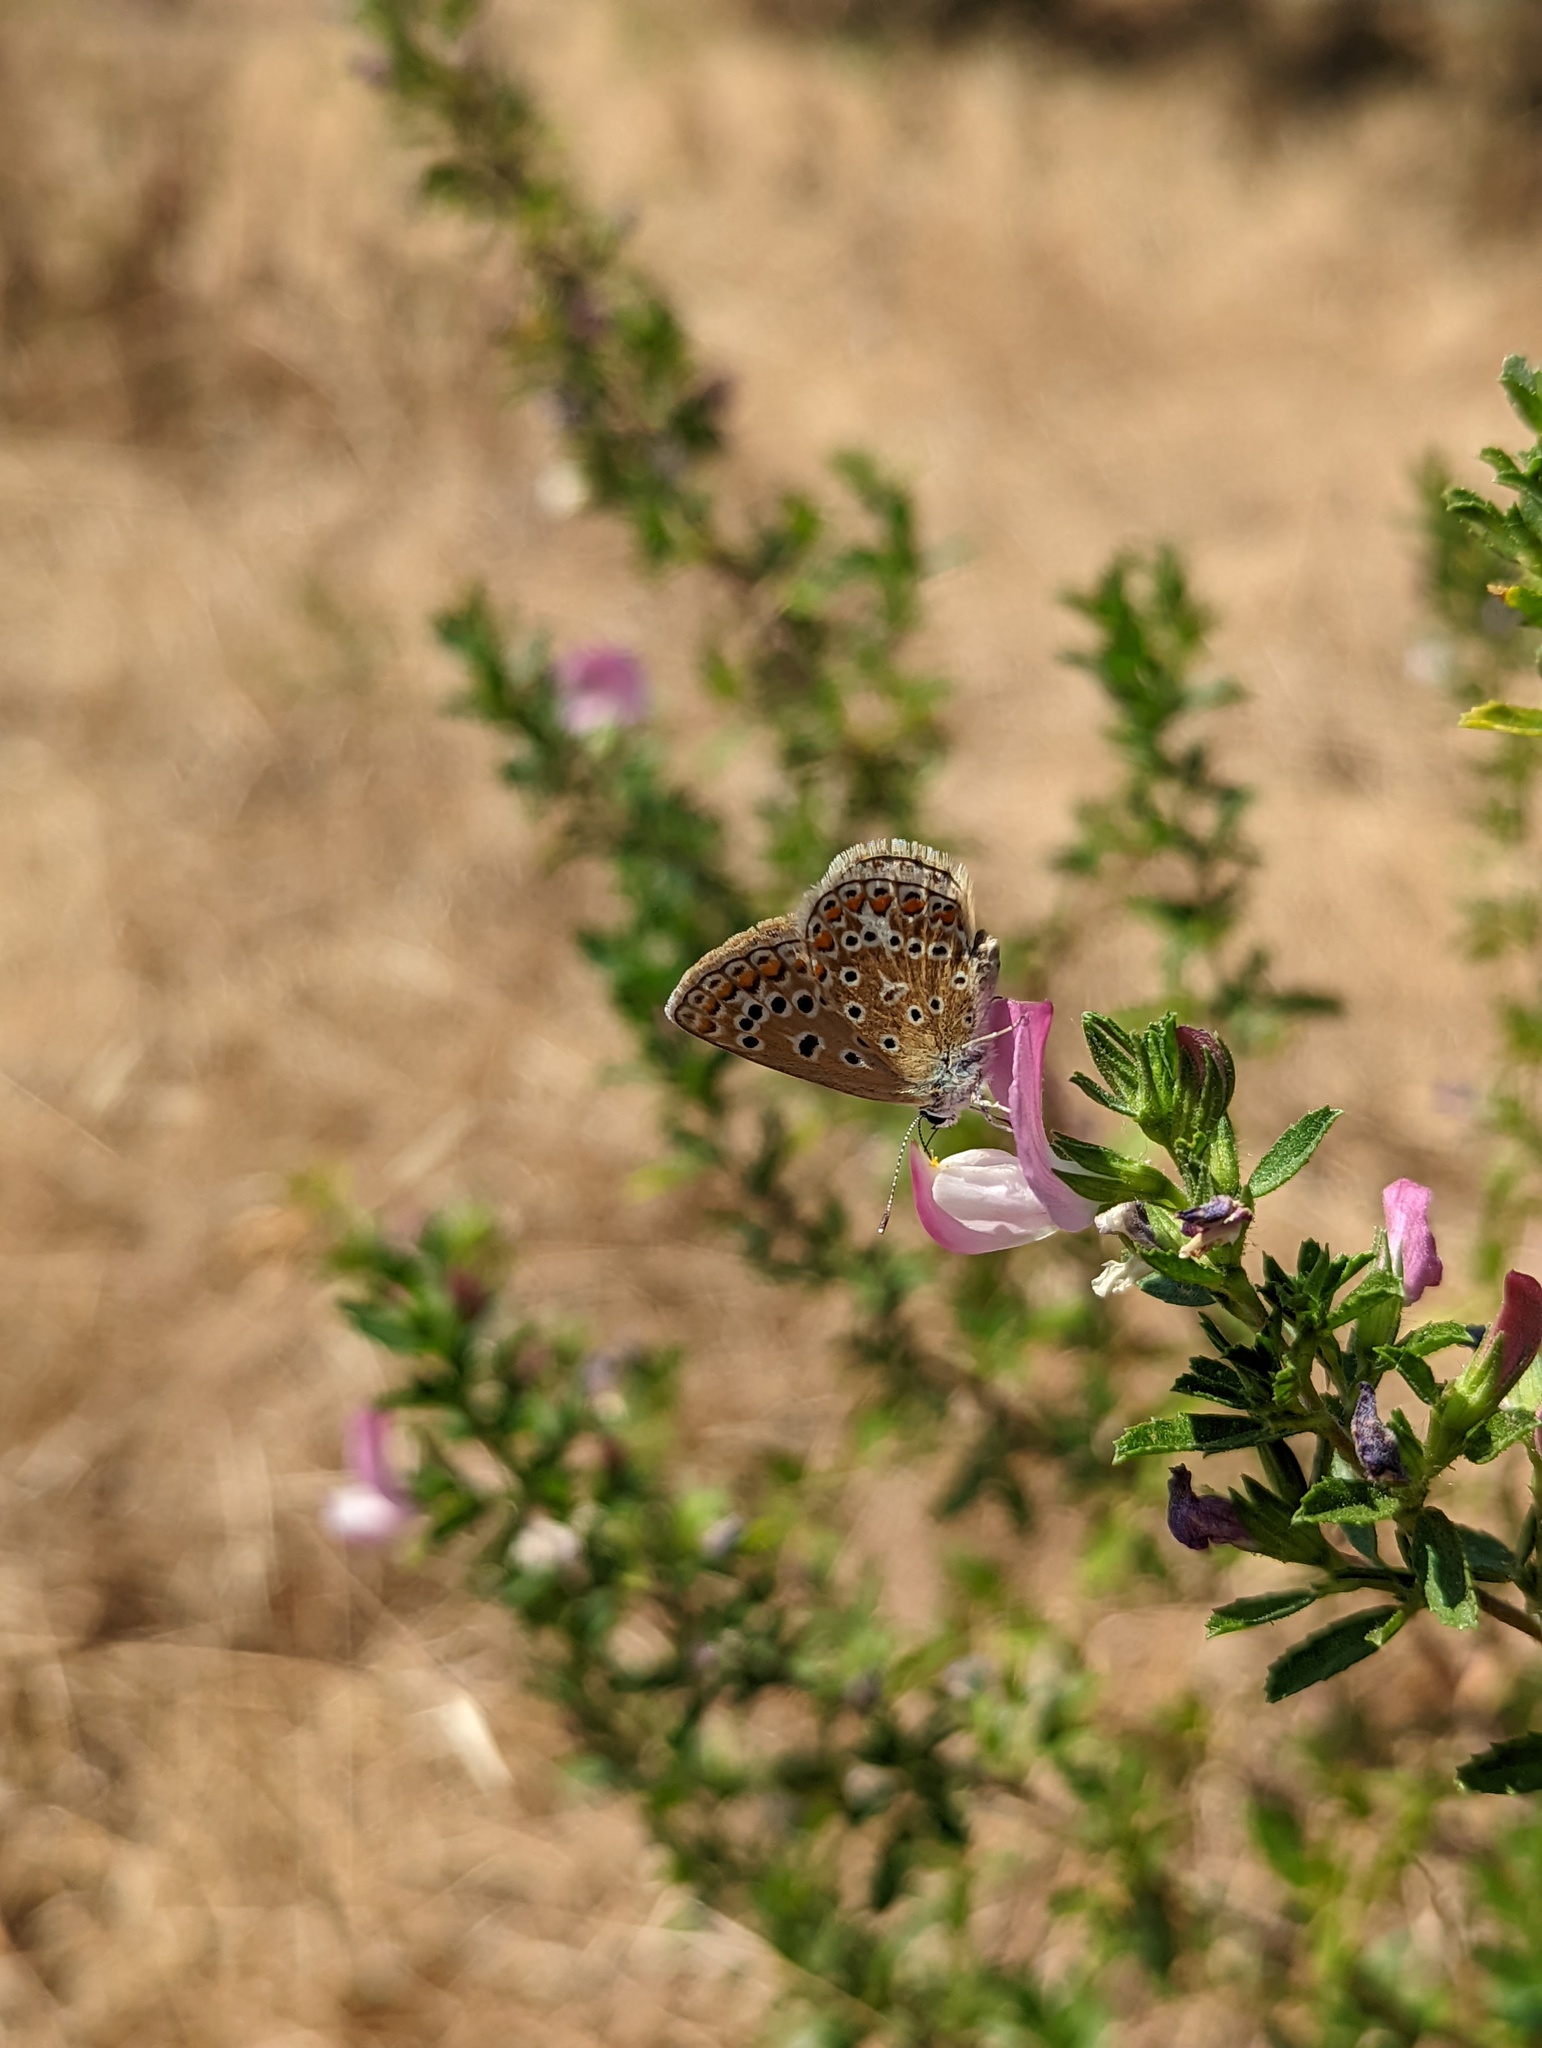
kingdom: Animalia
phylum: Arthropoda
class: Insecta
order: Lepidoptera
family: Lycaenidae
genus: Polyommatus
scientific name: Polyommatus icarus
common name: Common blue
